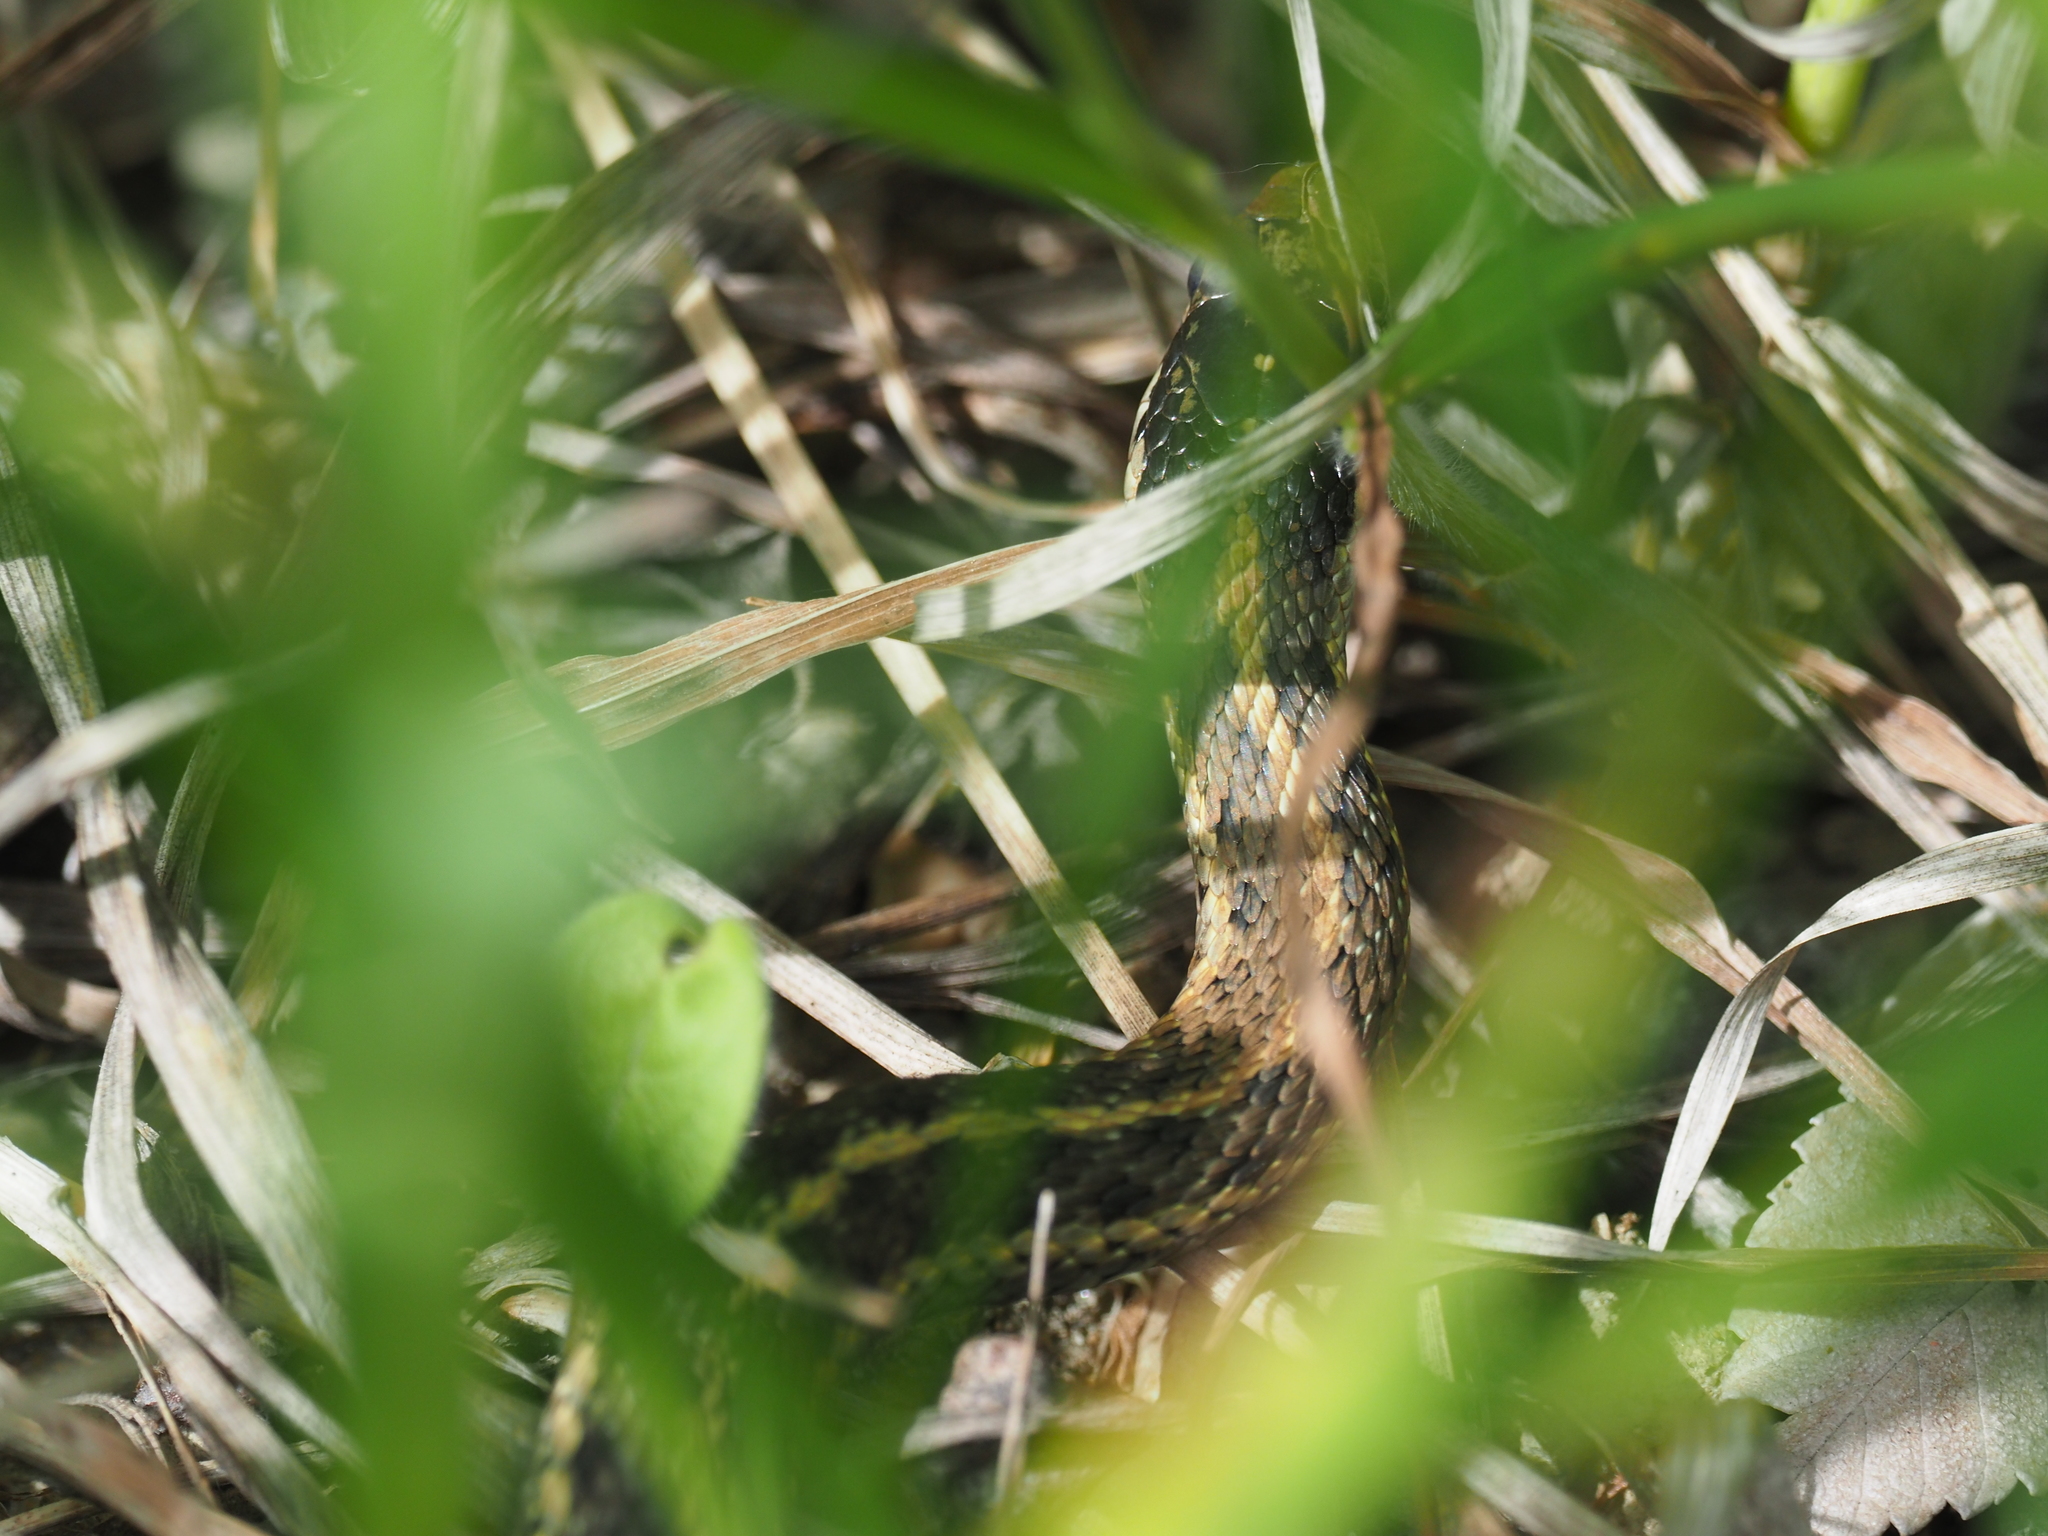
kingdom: Animalia
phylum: Chordata
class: Squamata
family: Colubridae
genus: Thamnophis
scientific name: Thamnophis elegans
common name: Western terrestrial garter snake
